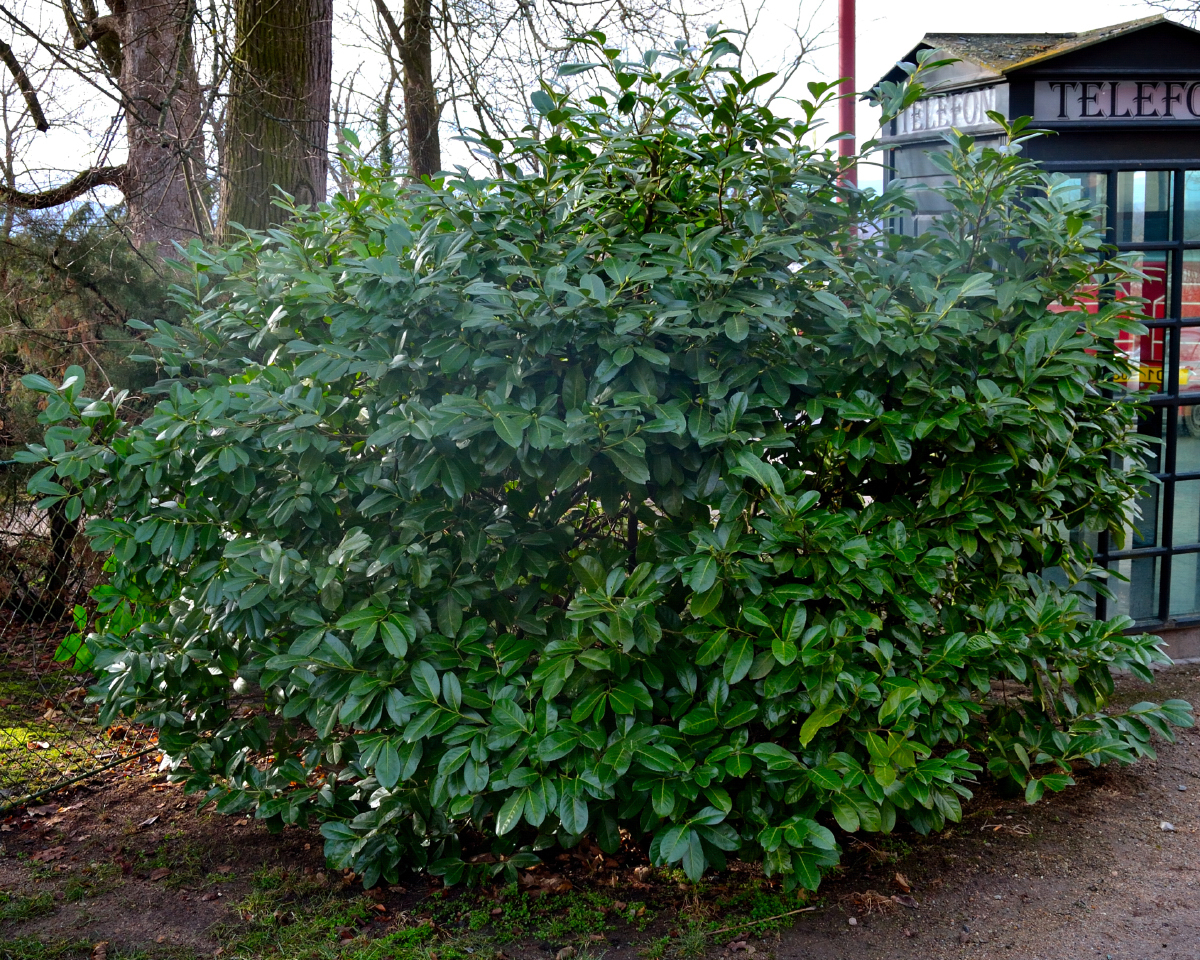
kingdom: Plantae
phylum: Tracheophyta
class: Magnoliopsida
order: Rosales
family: Rosaceae
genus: Prunus
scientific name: Prunus laurocerasus
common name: Cherry laurel
